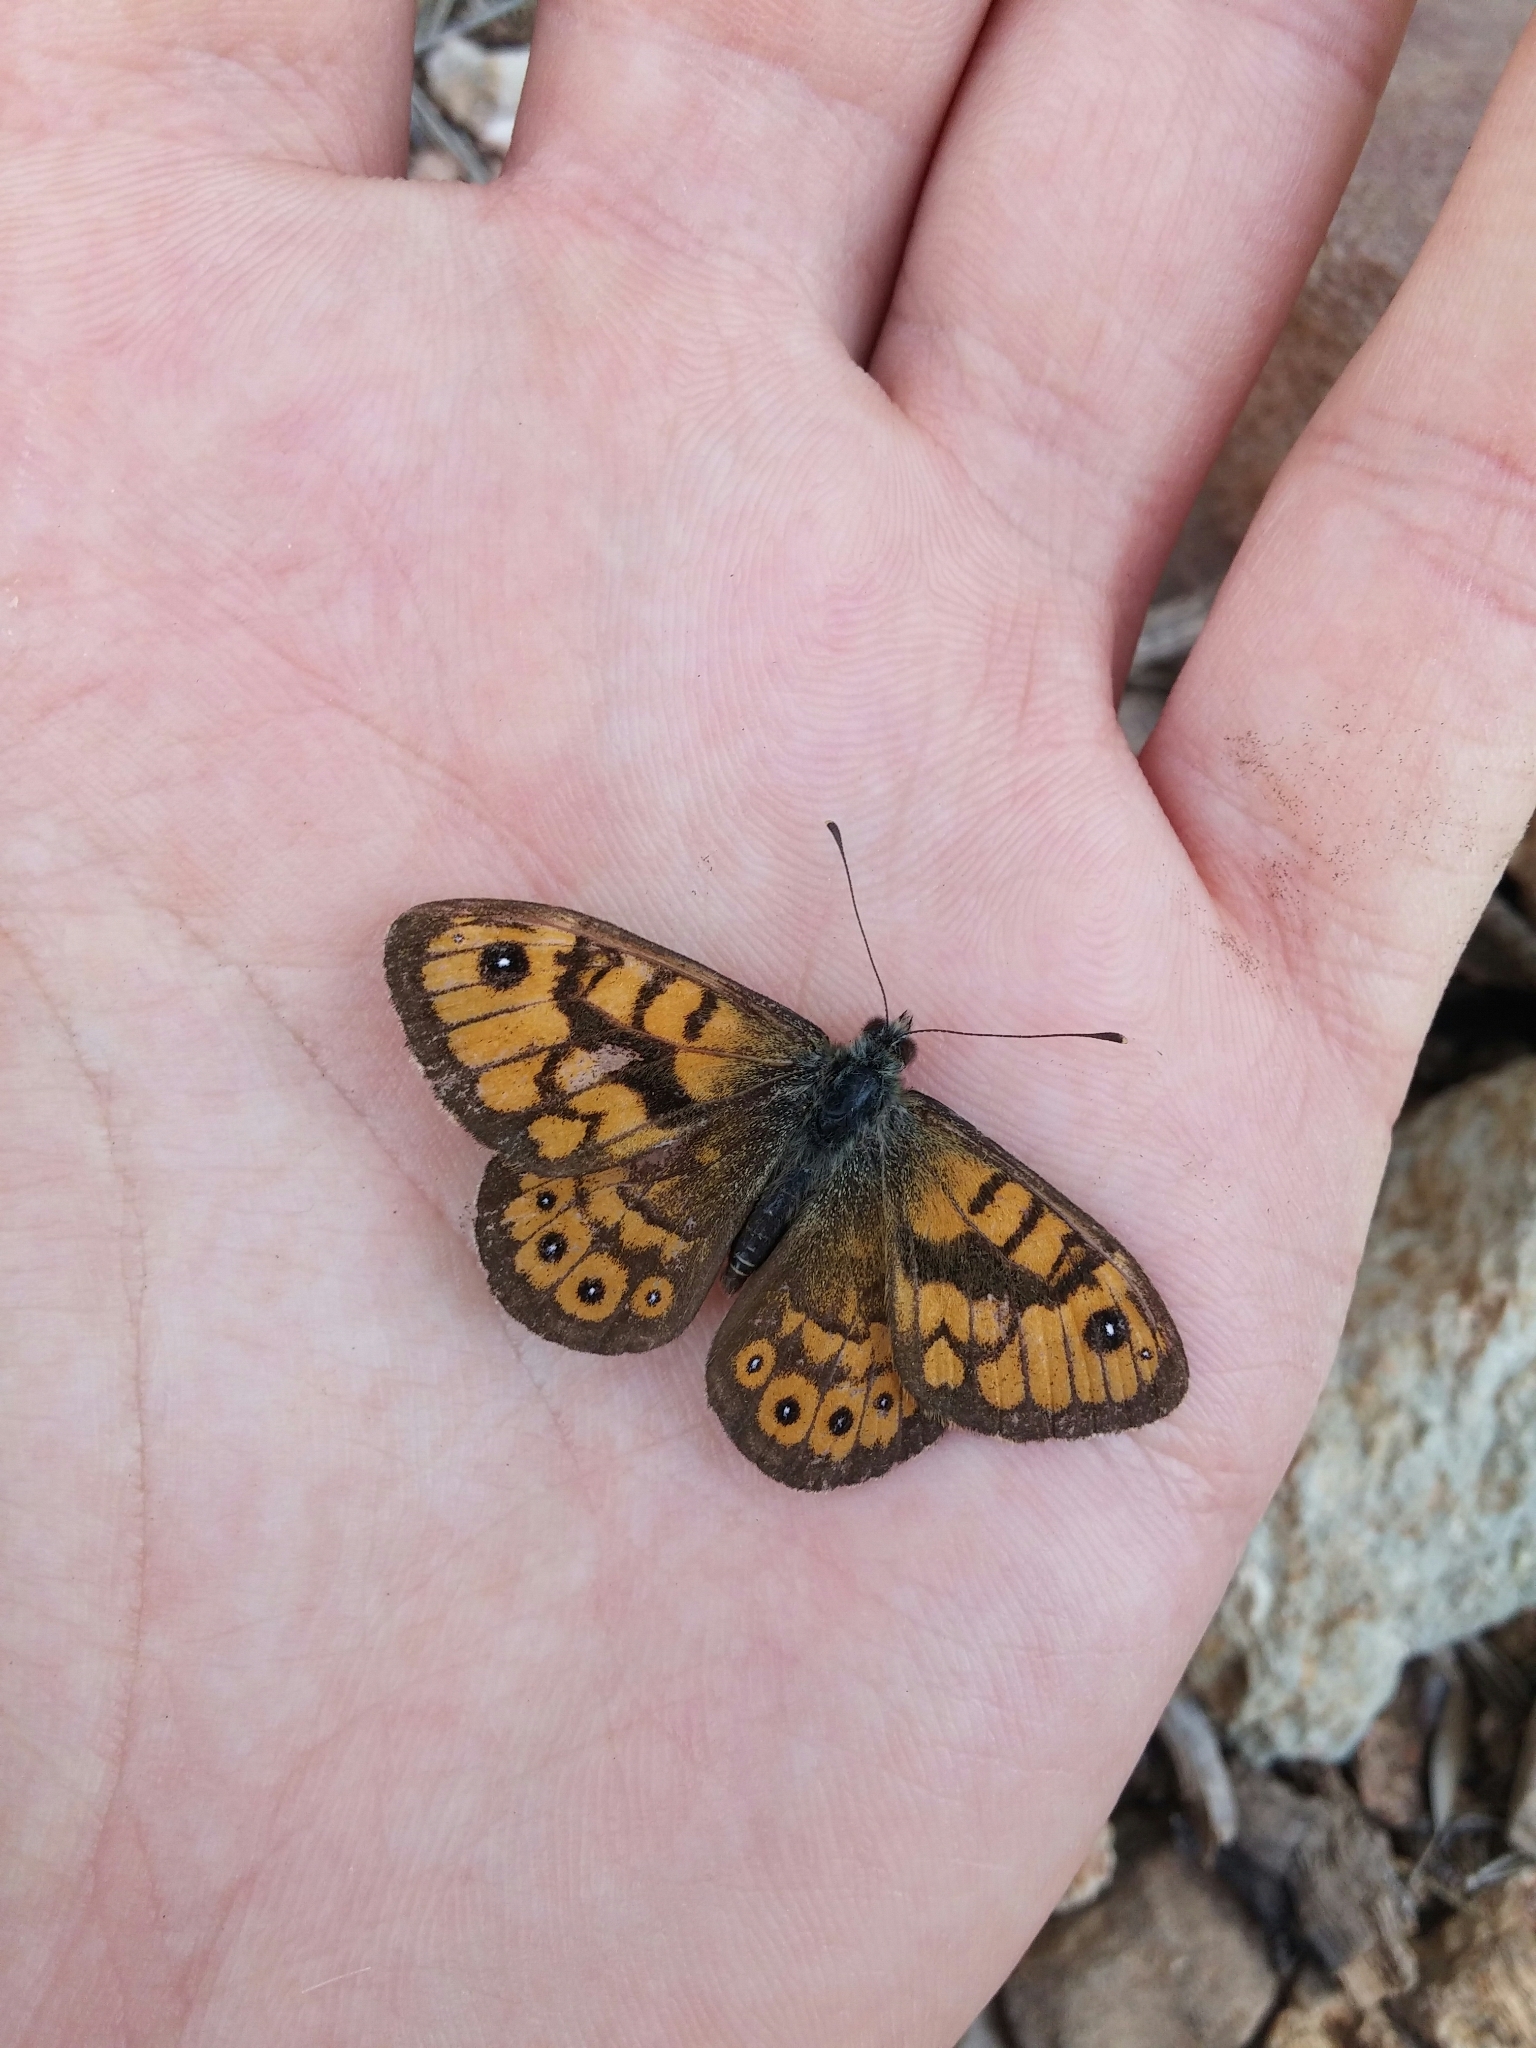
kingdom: Animalia
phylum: Arthropoda
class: Insecta
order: Lepidoptera
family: Nymphalidae
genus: Pararge
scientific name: Pararge Lasiommata megera
